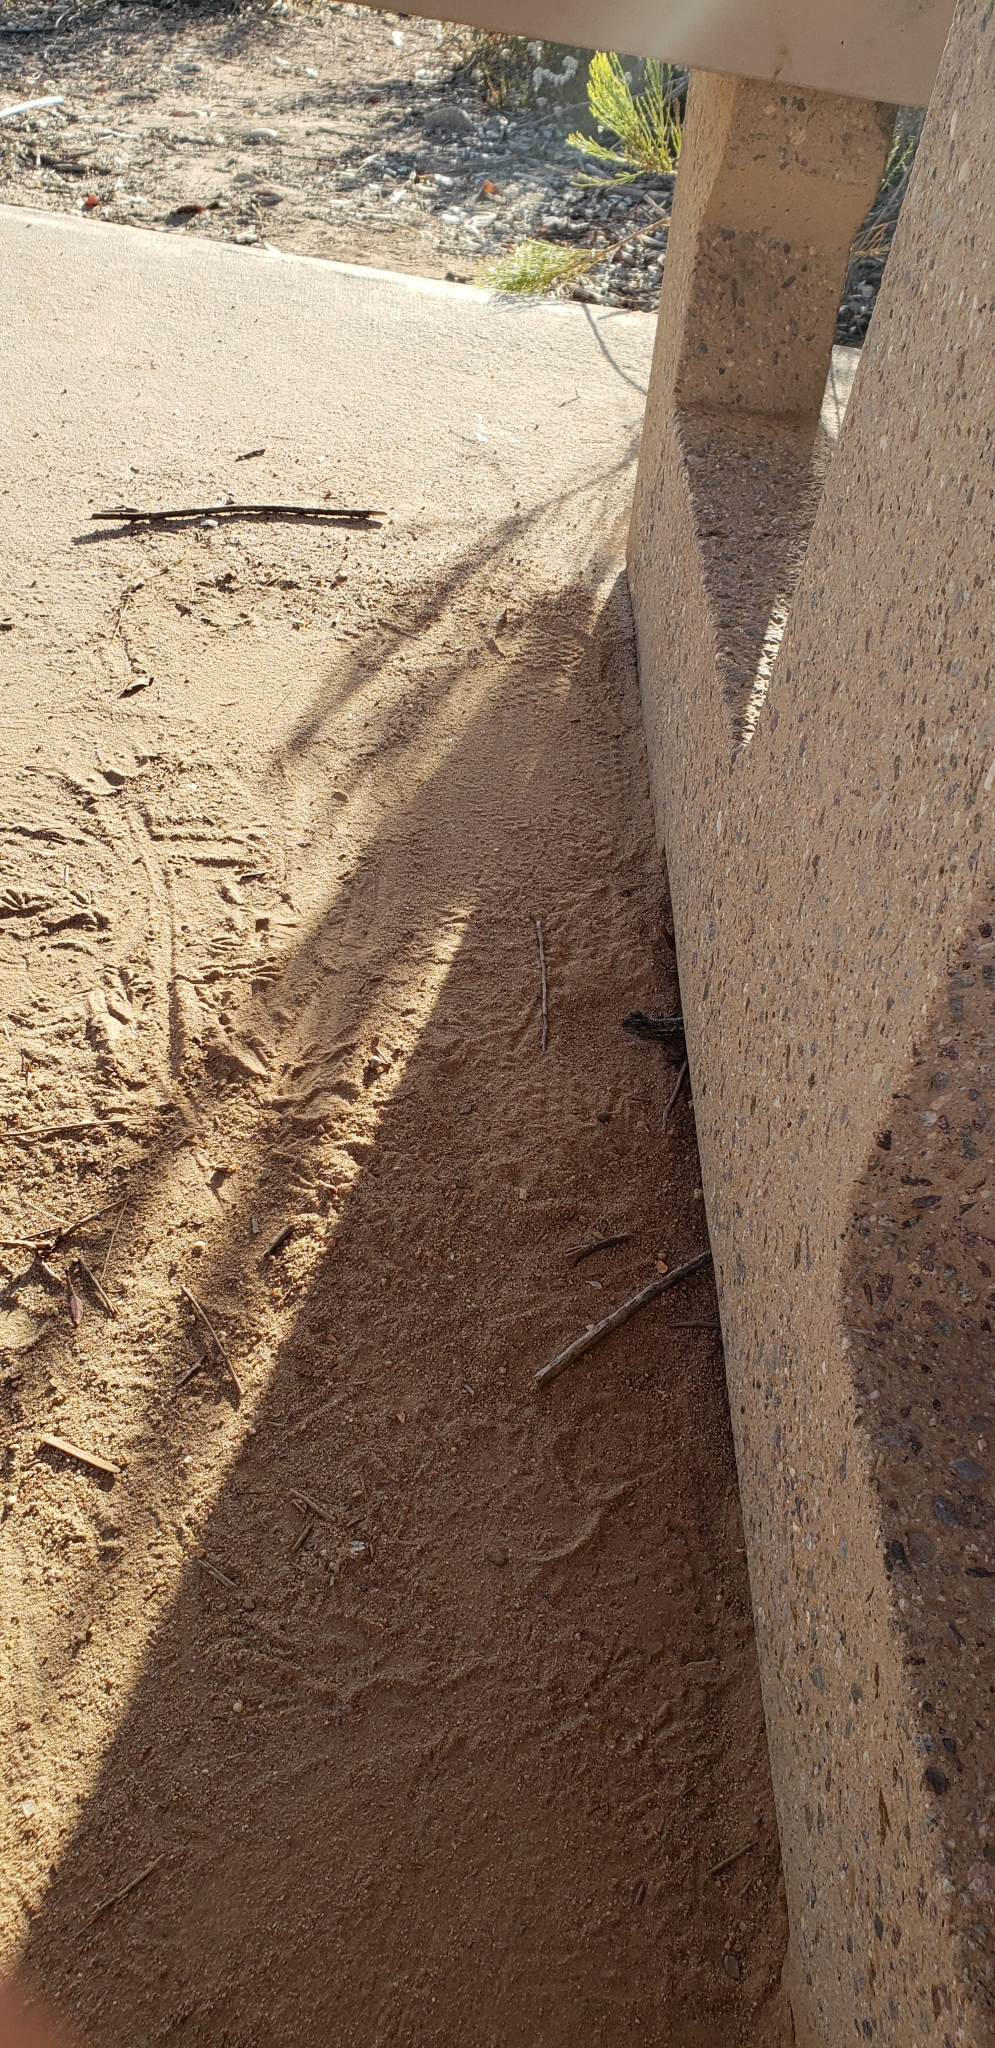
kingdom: Animalia
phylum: Chordata
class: Squamata
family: Phrynosomatidae
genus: Sceloporus
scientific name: Sceloporus occidentalis
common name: Western fence lizard
